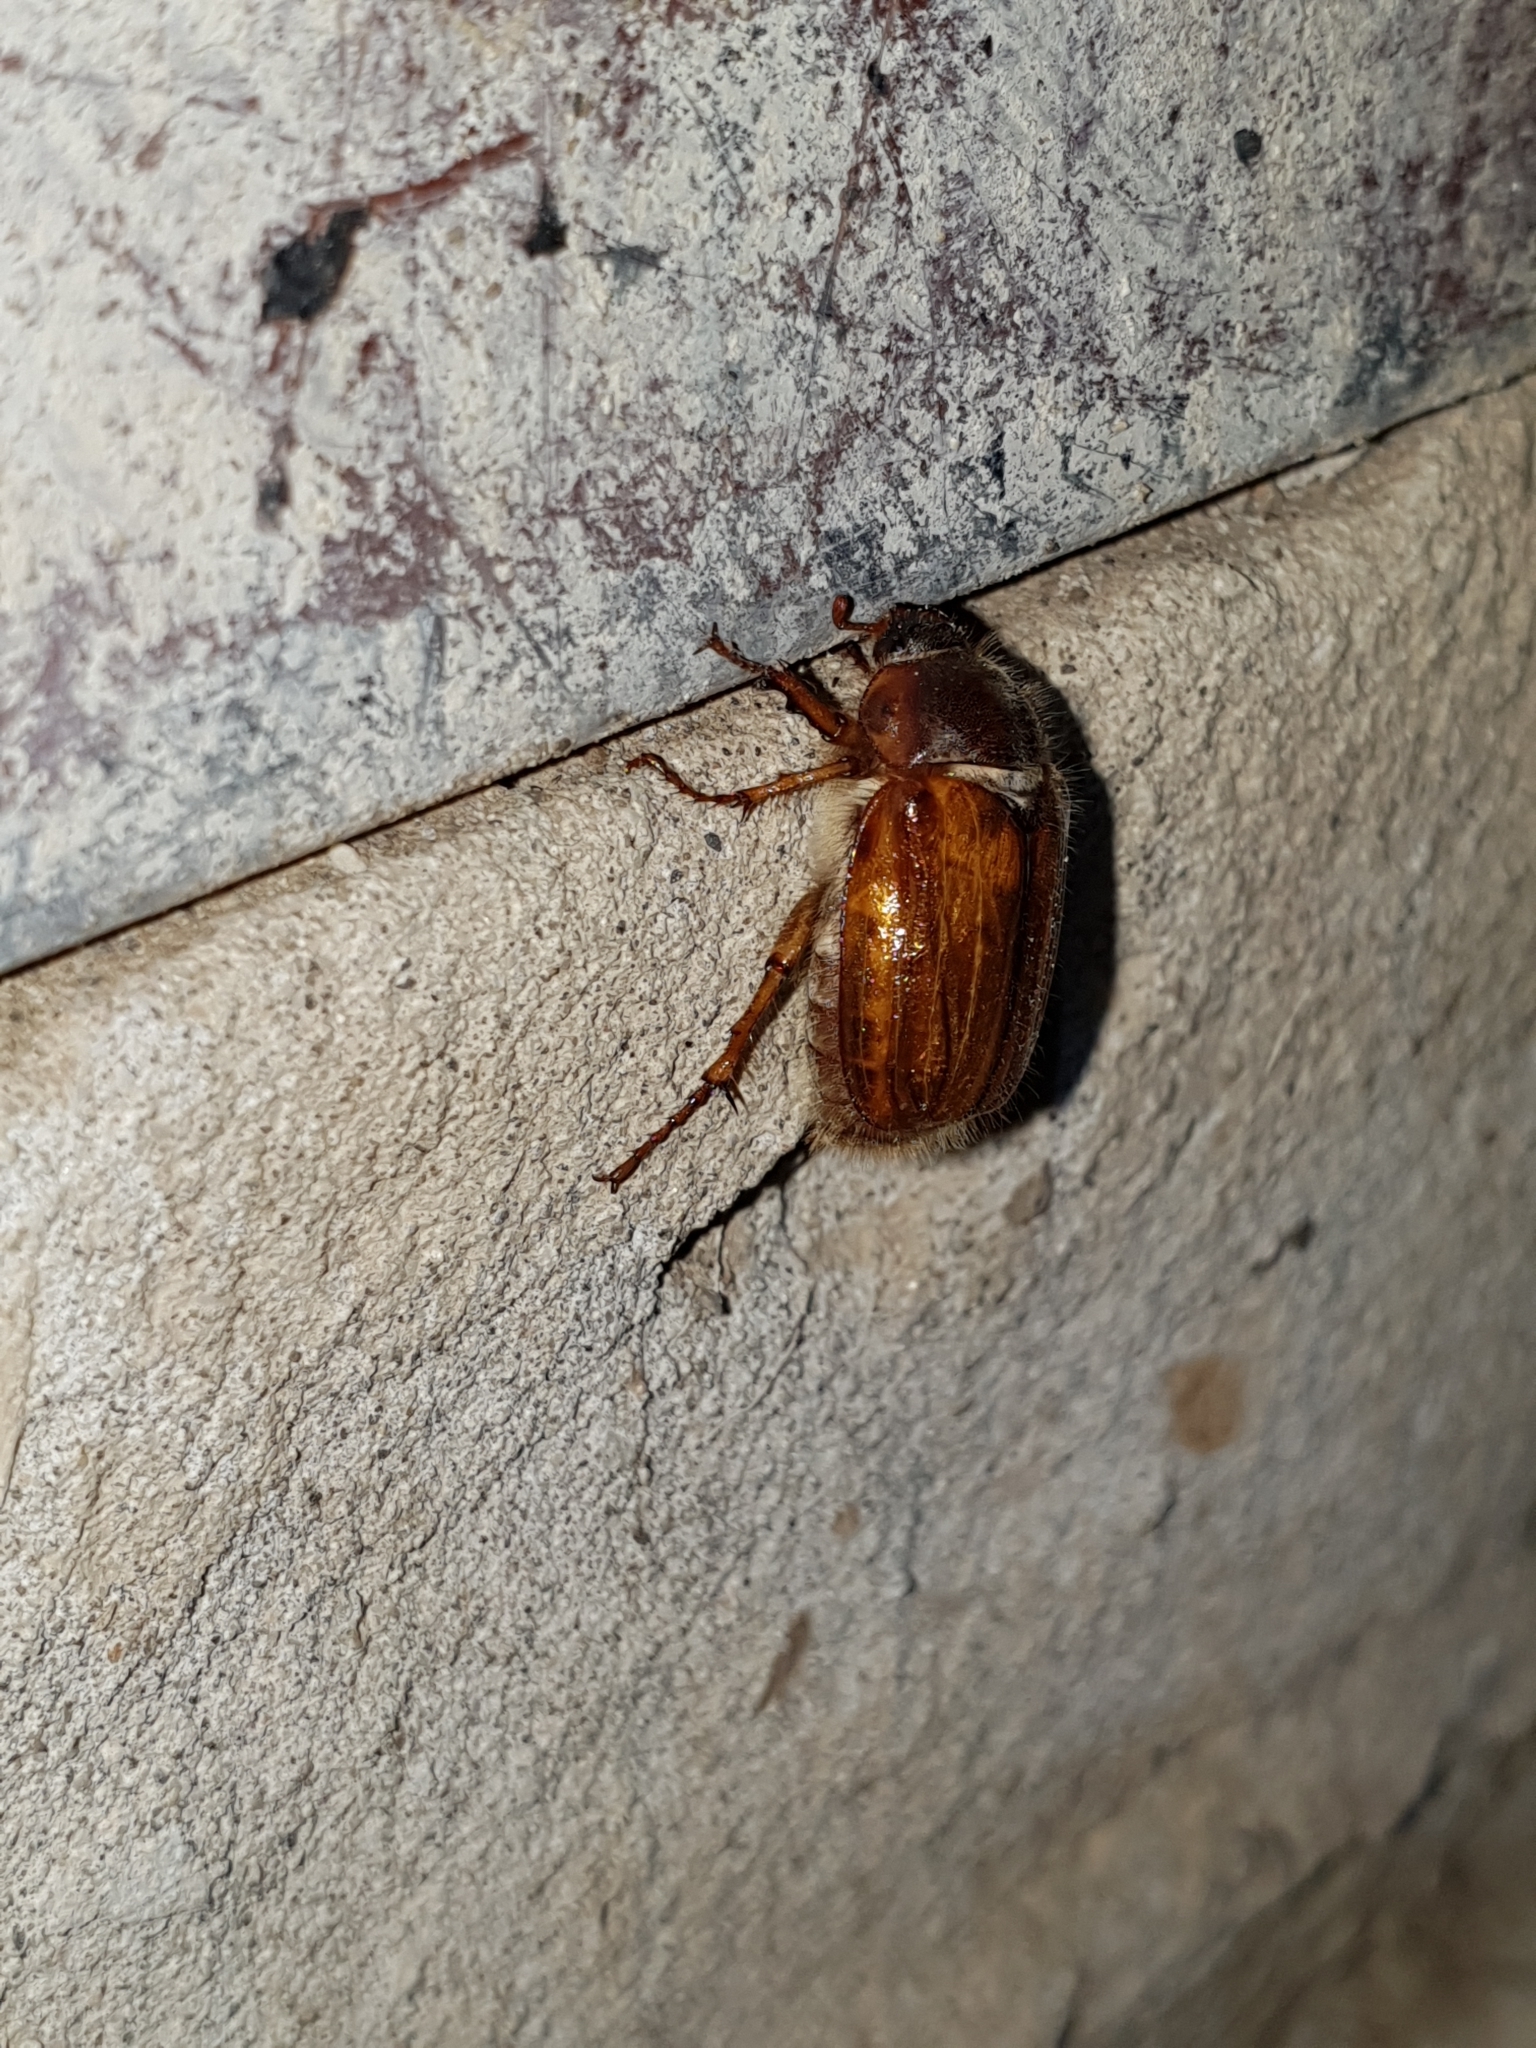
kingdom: Animalia
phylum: Arthropoda
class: Insecta
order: Coleoptera
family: Scarabaeidae
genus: Amphimallon
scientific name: Amphimallon solstitiale
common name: Summer chafer
